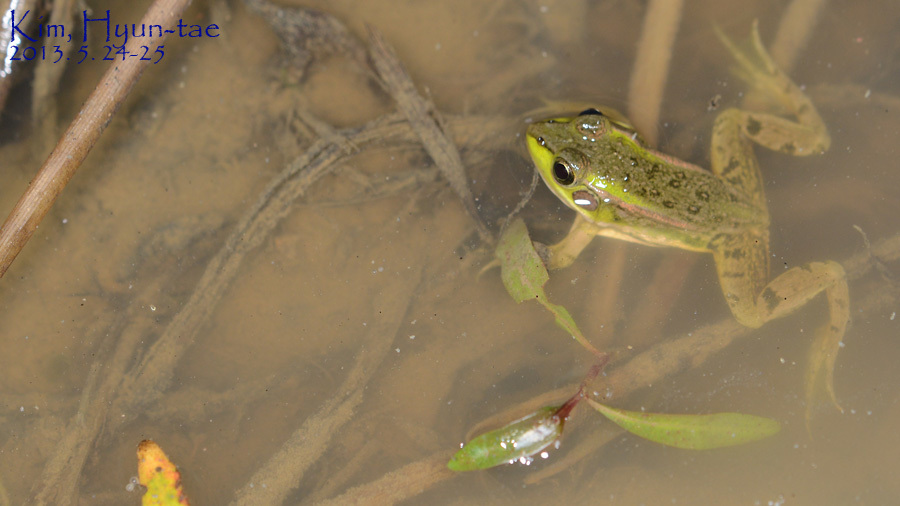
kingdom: Animalia
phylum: Chordata
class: Amphibia
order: Anura
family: Ranidae
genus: Pelophylax
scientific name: Pelophylax chosenicus
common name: Gold-spotted pond frog
